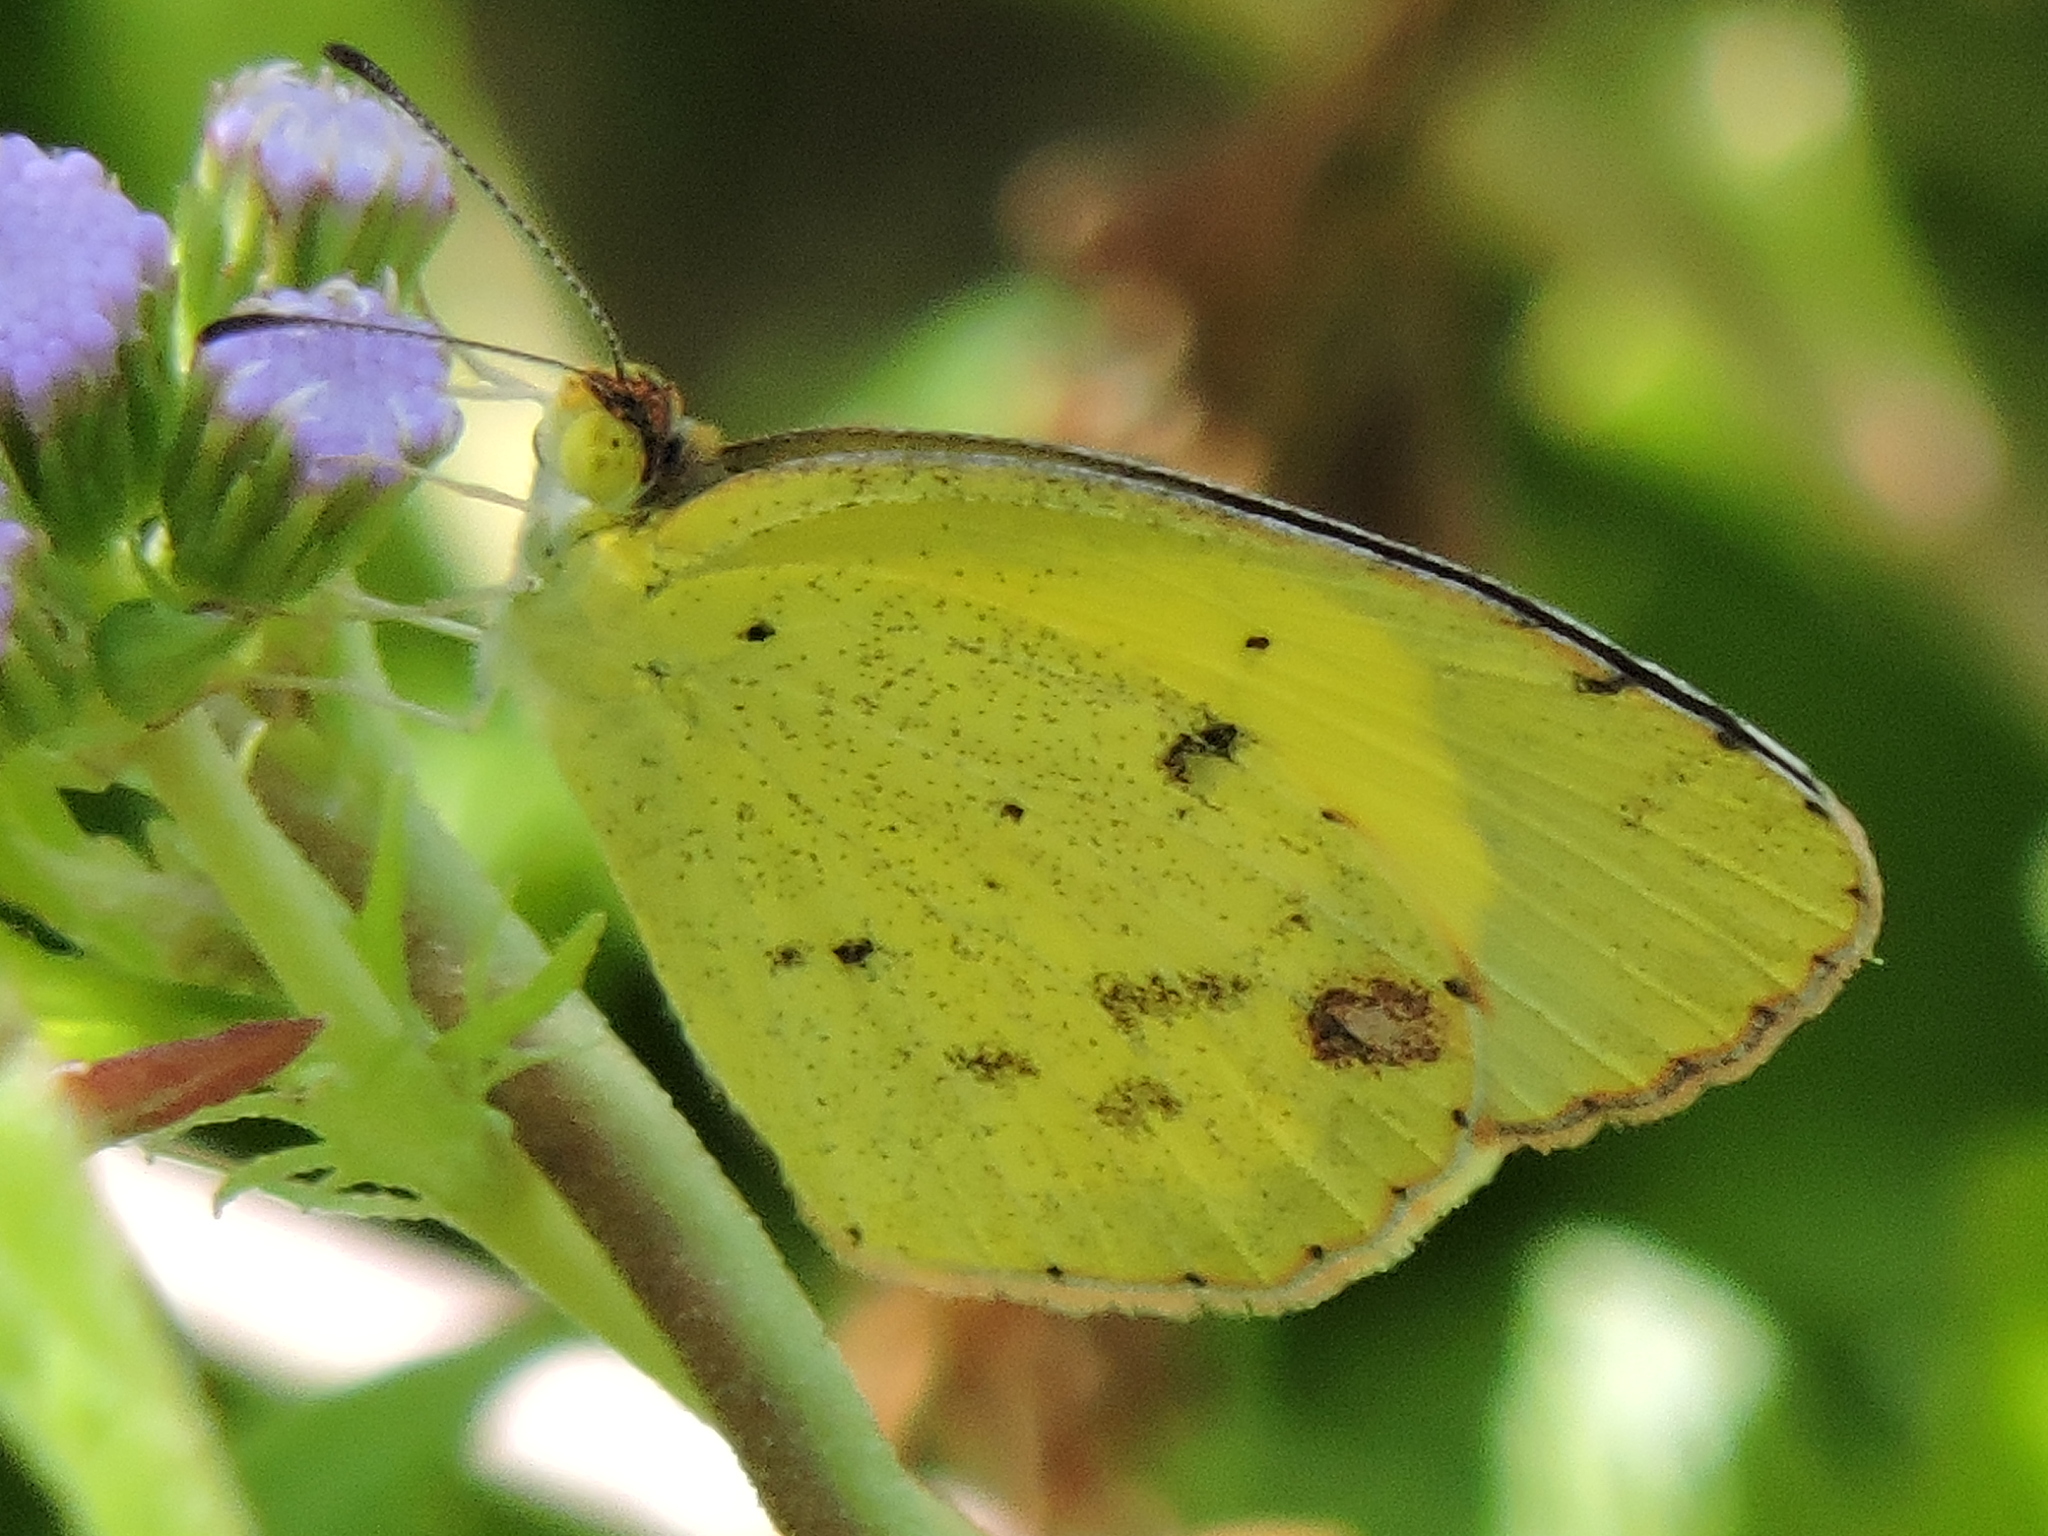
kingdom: Animalia
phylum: Arthropoda
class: Insecta
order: Lepidoptera
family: Pieridae
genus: Pyrisitia
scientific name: Pyrisitia lisa
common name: Little yellow
